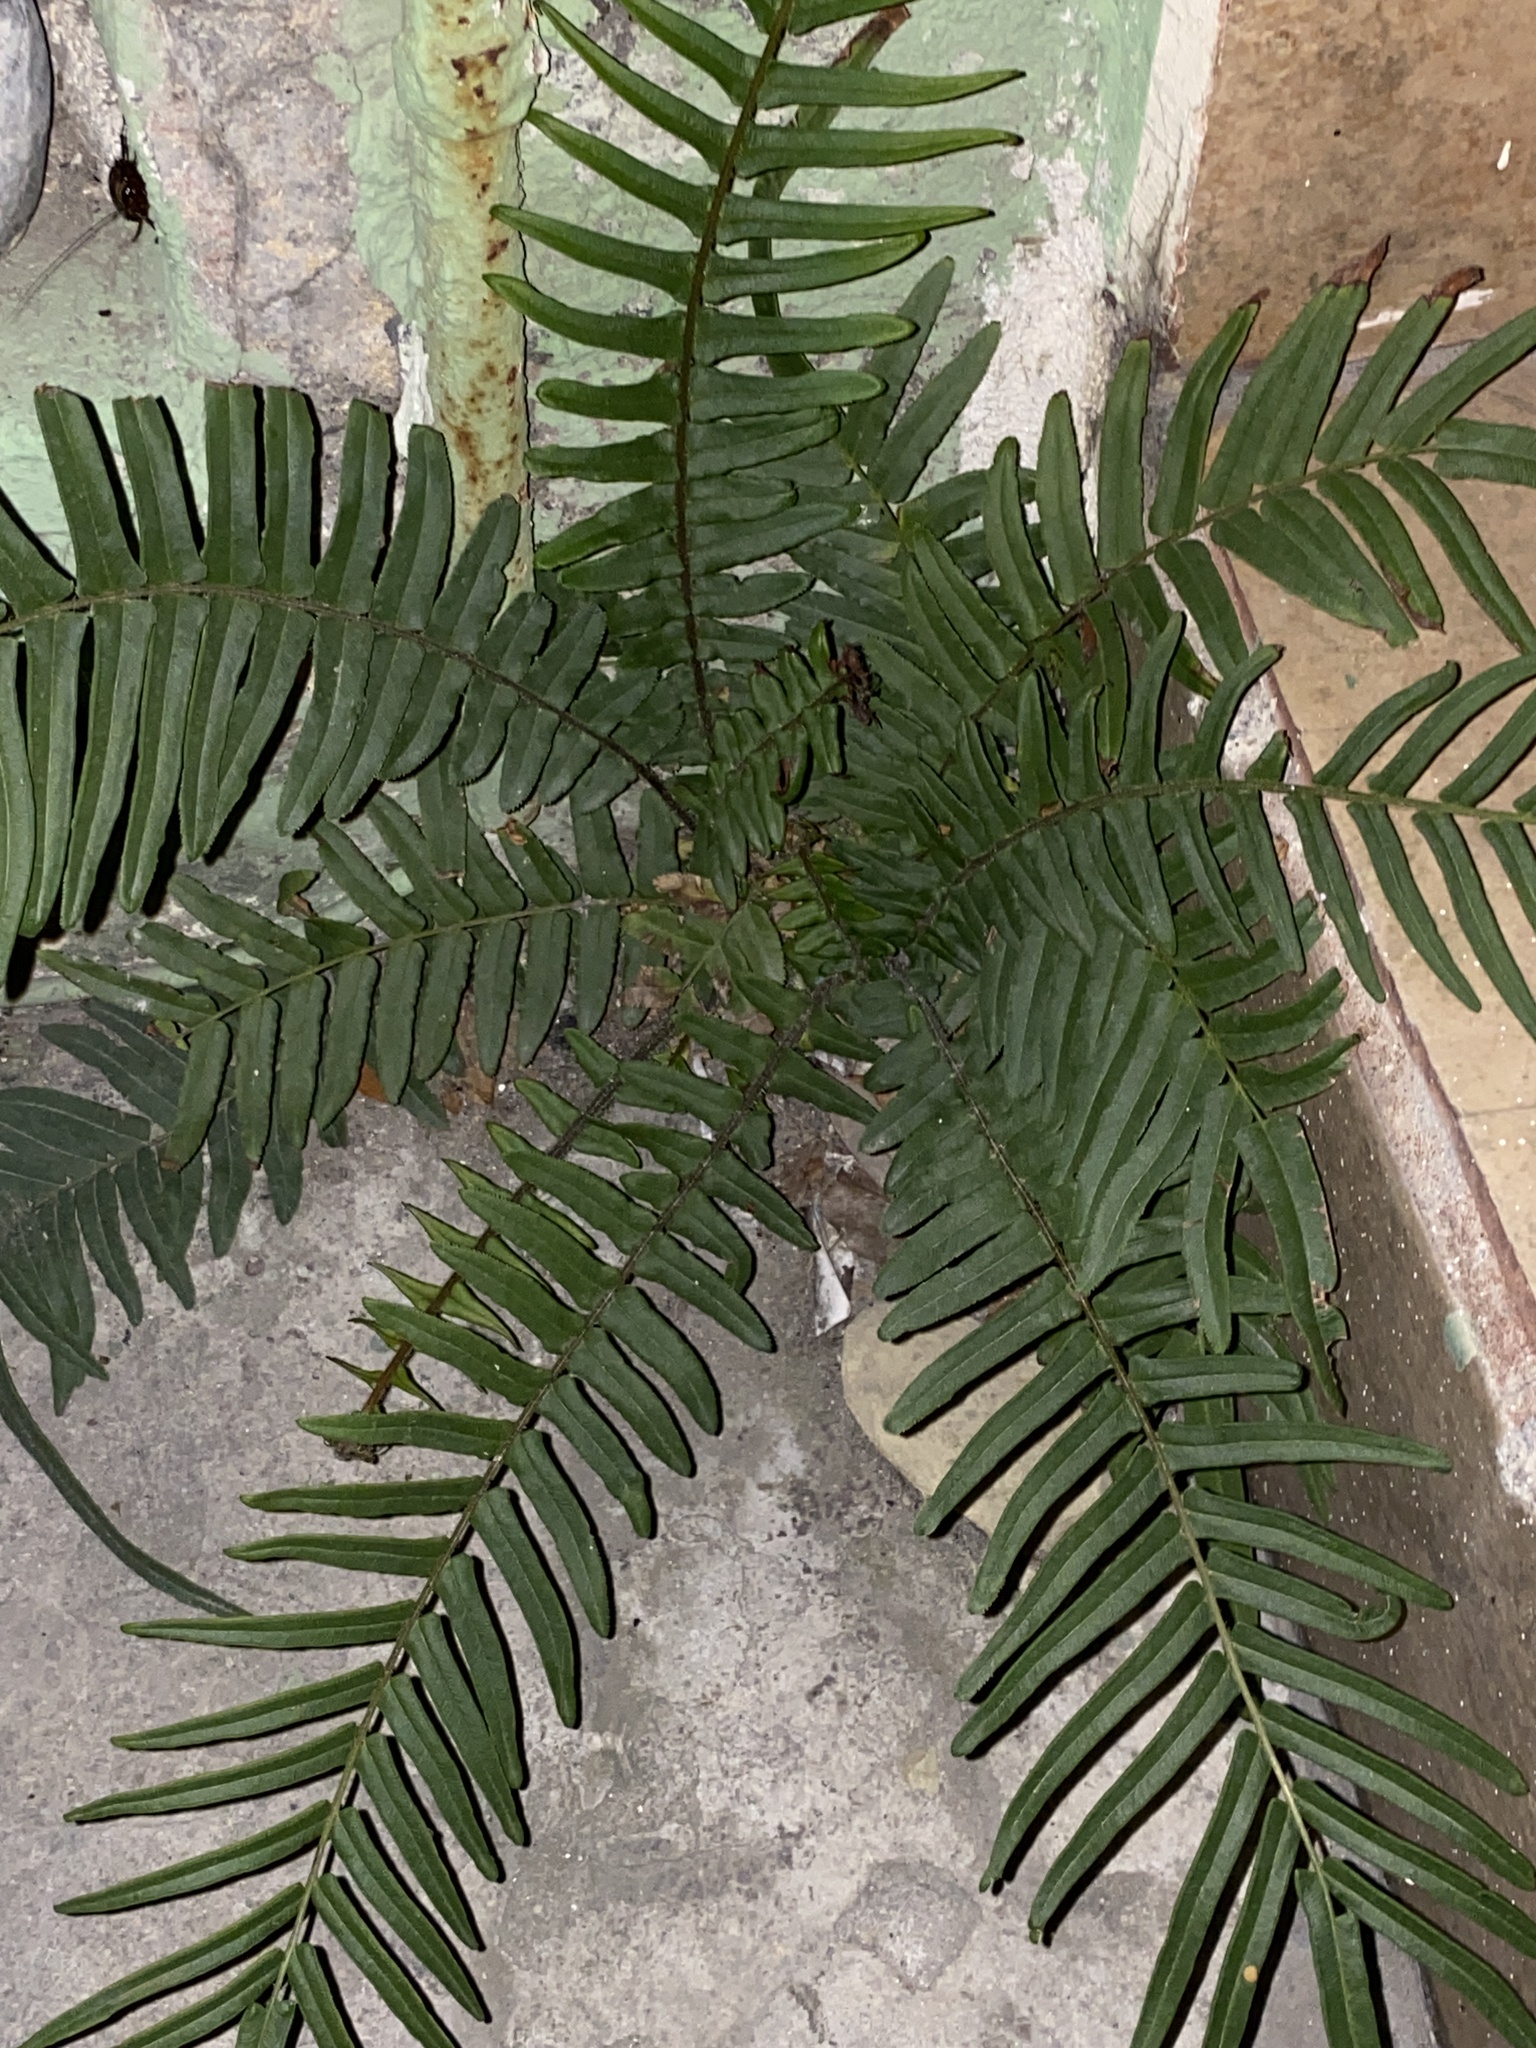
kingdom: Plantae
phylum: Tracheophyta
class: Polypodiopsida
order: Polypodiales
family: Pteridaceae
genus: Pteris
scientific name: Pteris vittata
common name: Ladder brake
